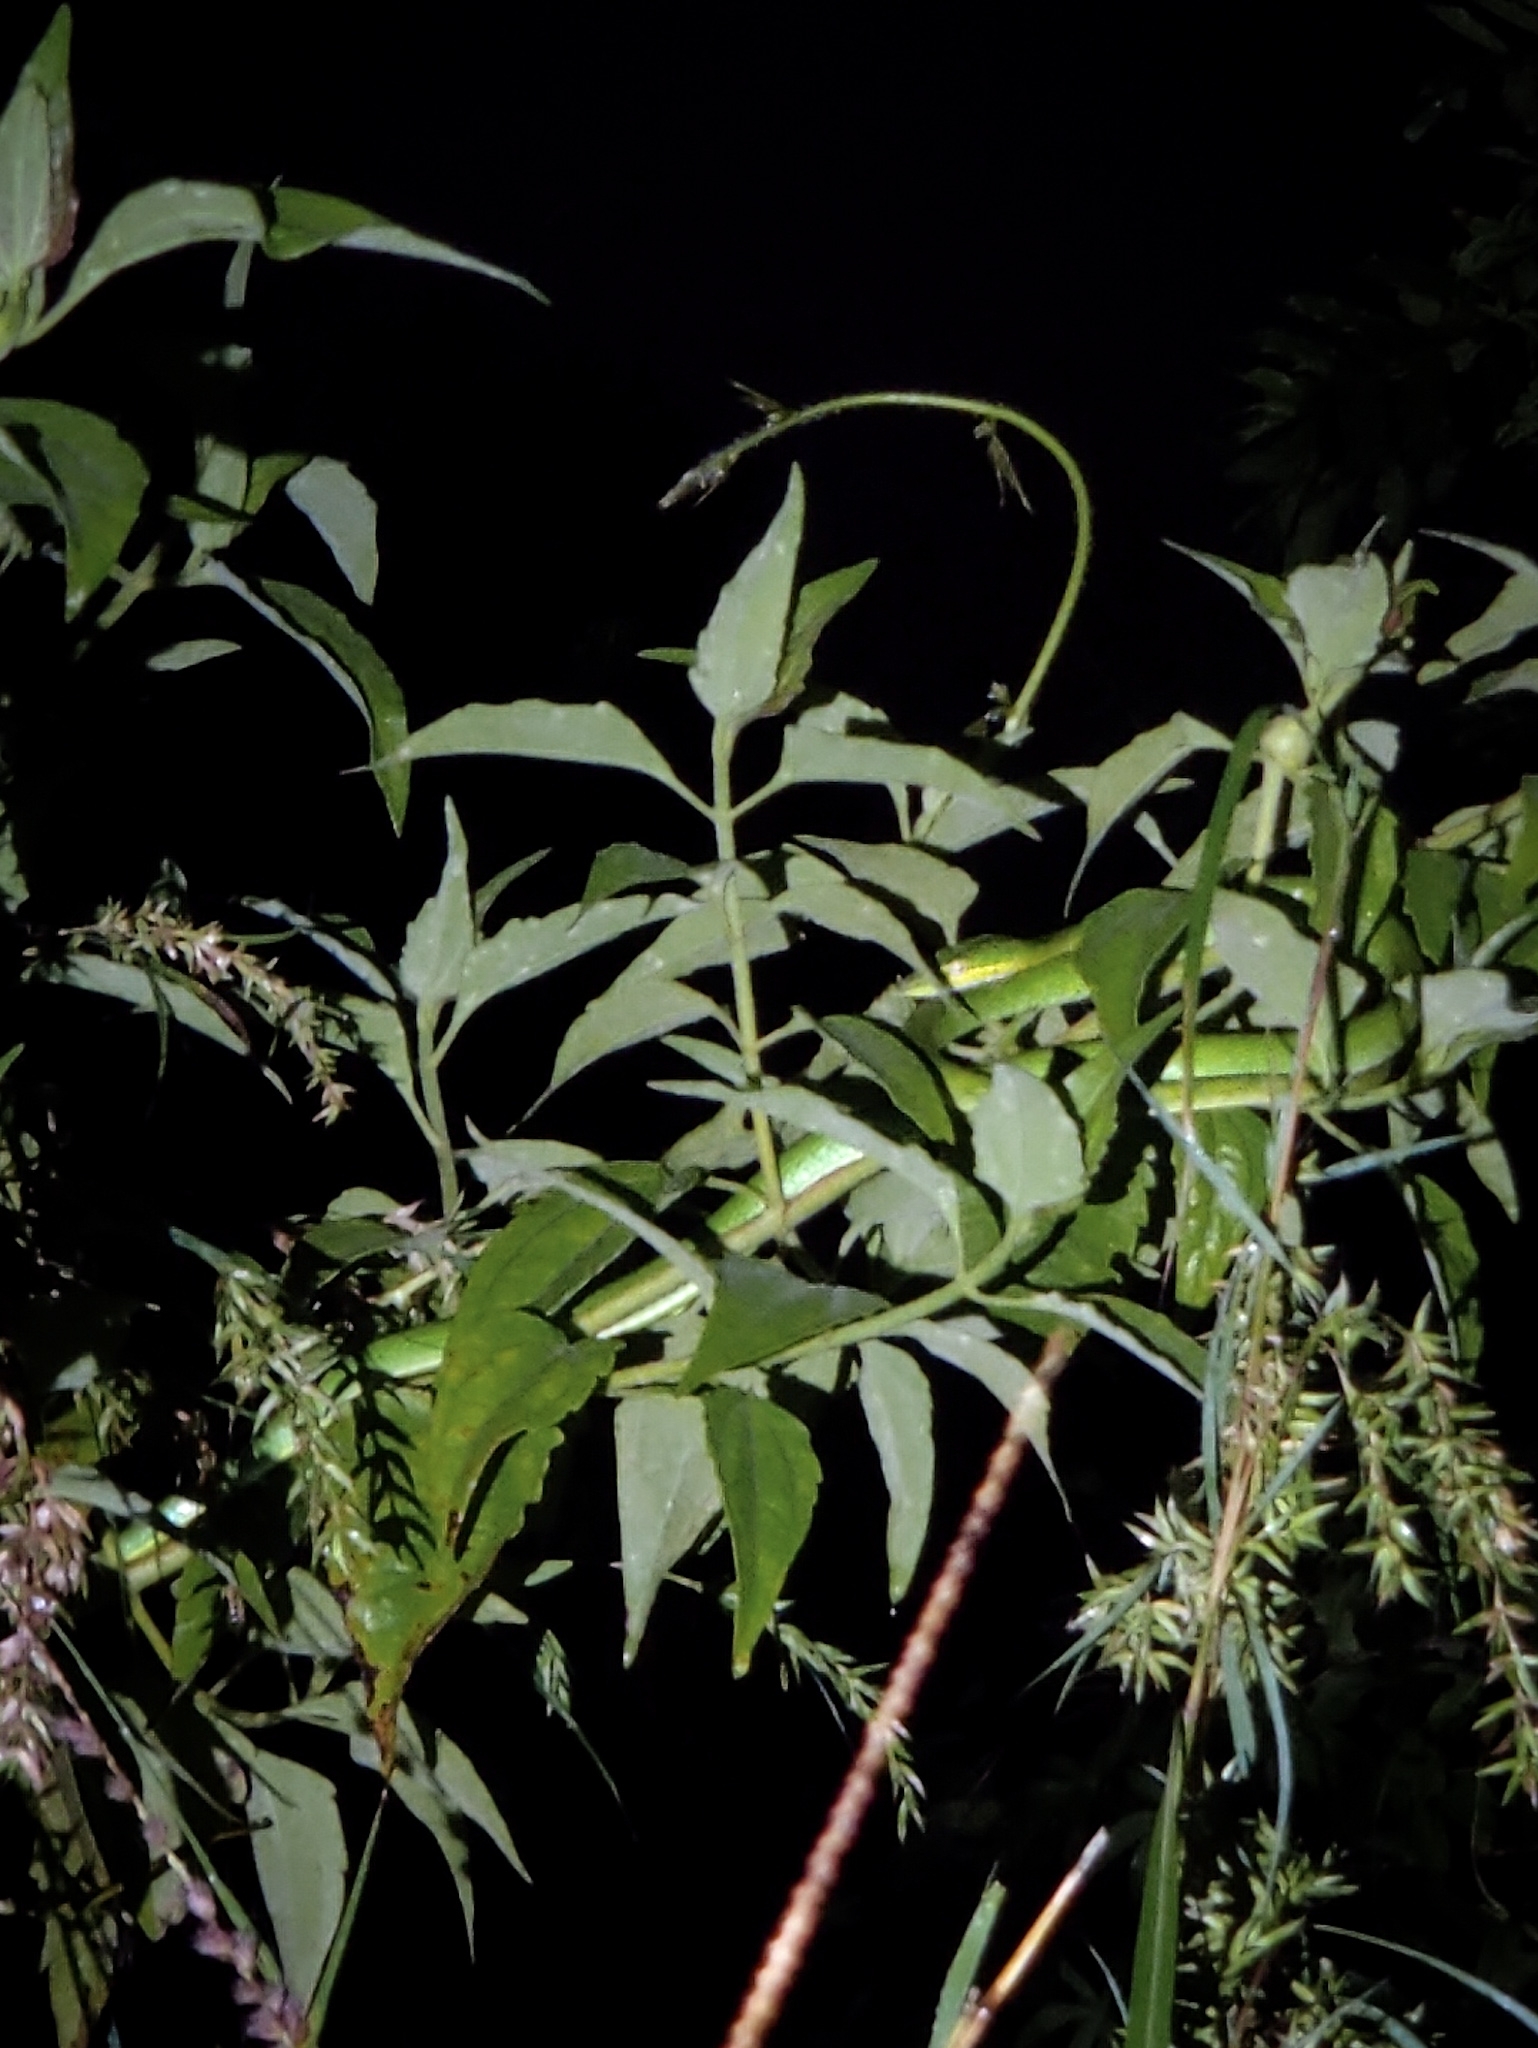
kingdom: Animalia
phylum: Chordata
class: Squamata
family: Colubridae
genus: Ahaetulla
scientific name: Ahaetulla oxyrhyncha
